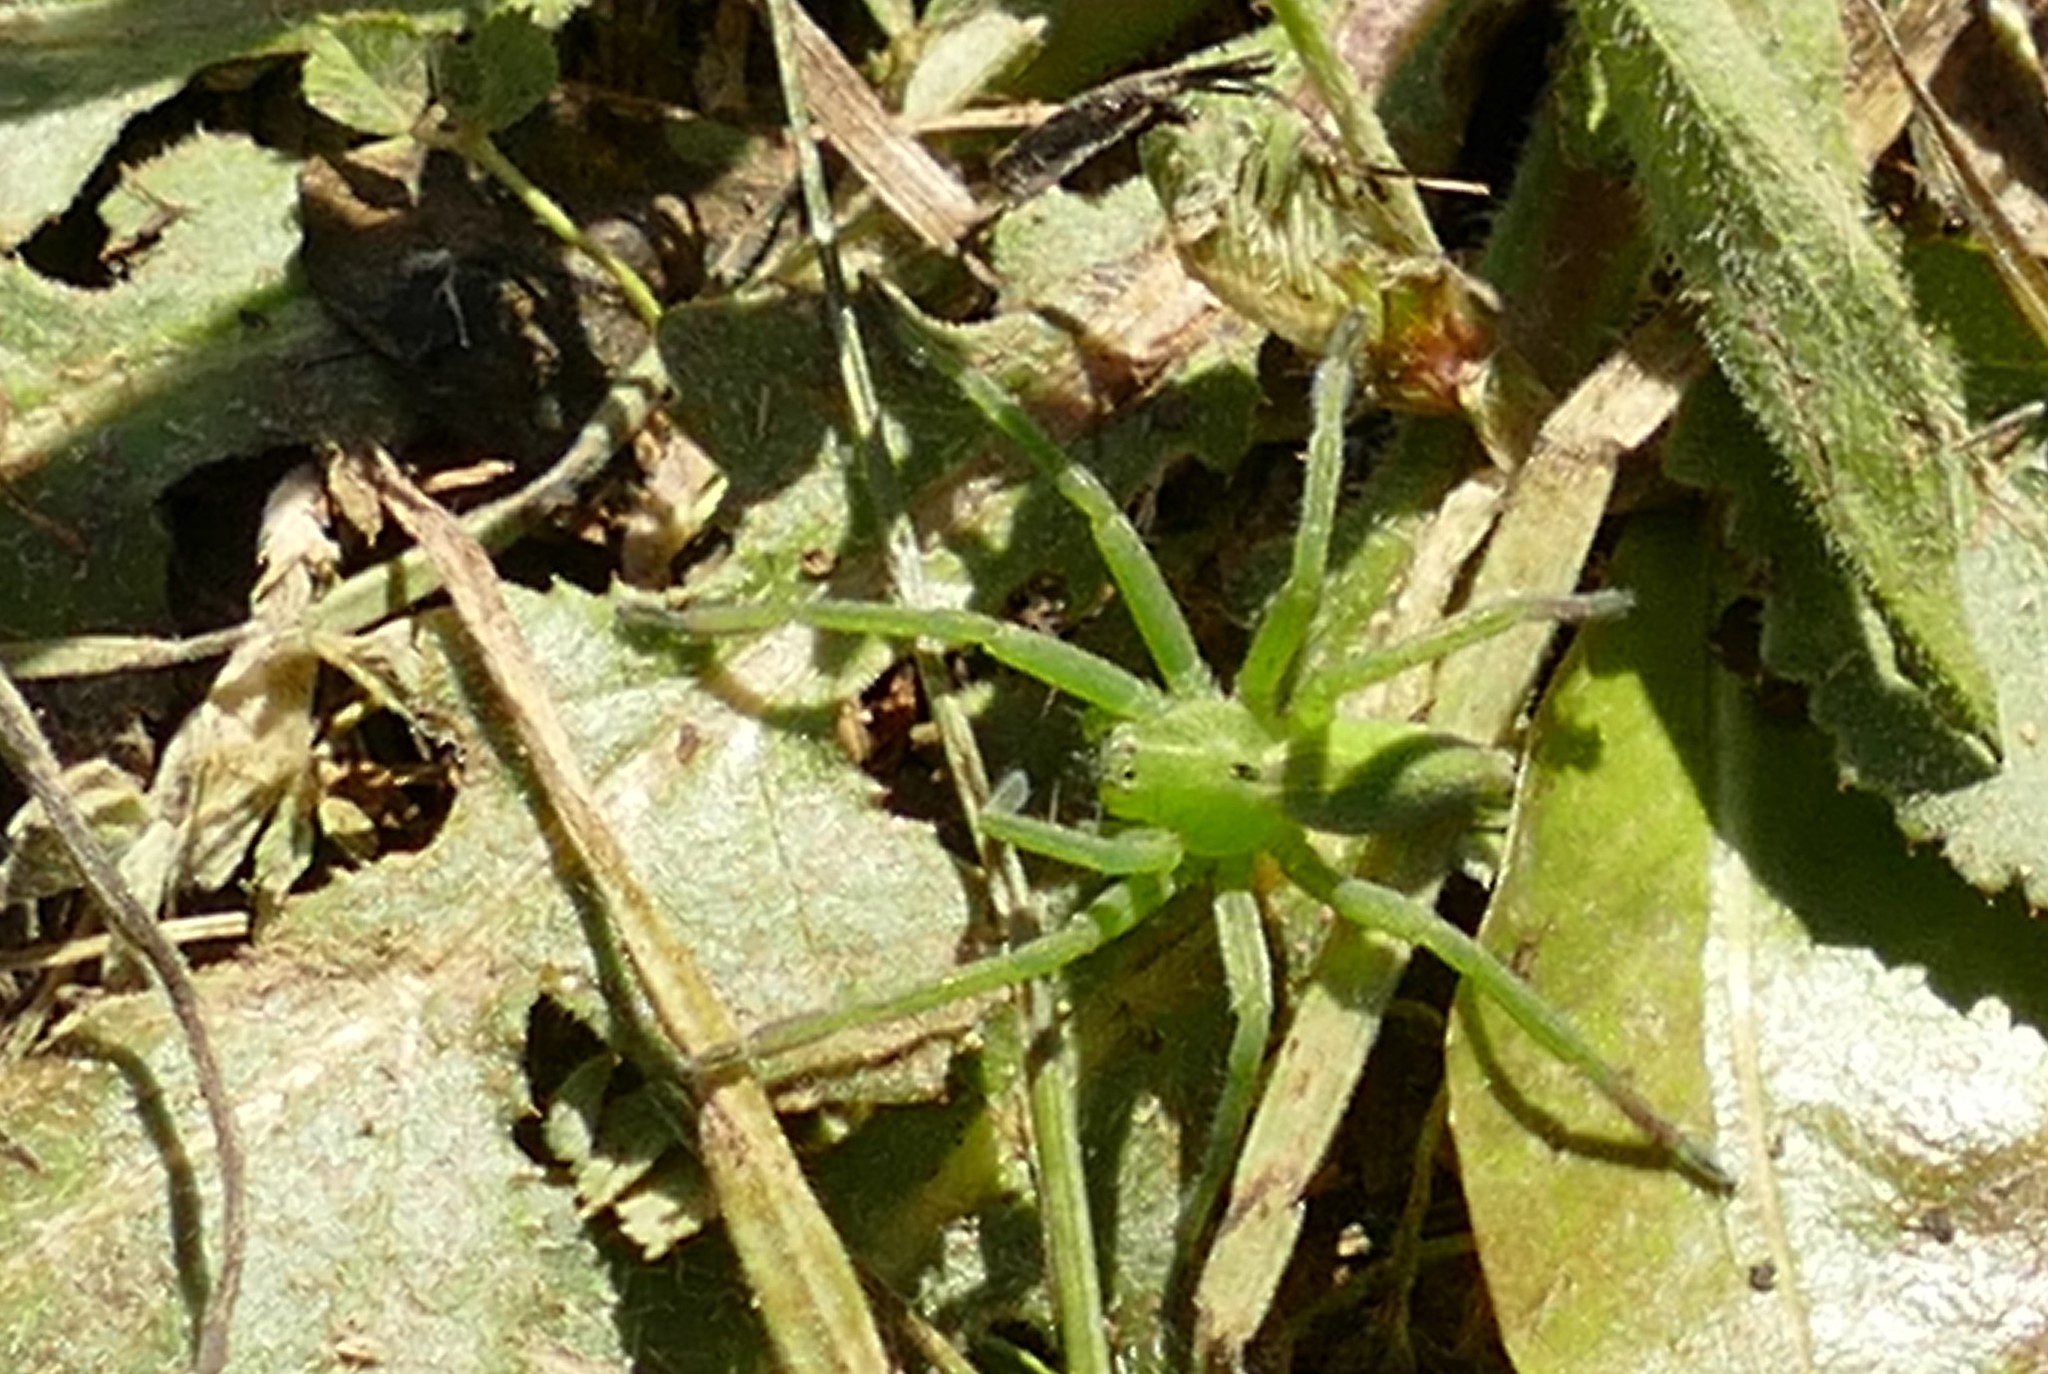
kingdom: Animalia
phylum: Arthropoda
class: Arachnida
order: Araneae
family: Sparassidae
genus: Micrommata
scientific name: Micrommata ligurina
